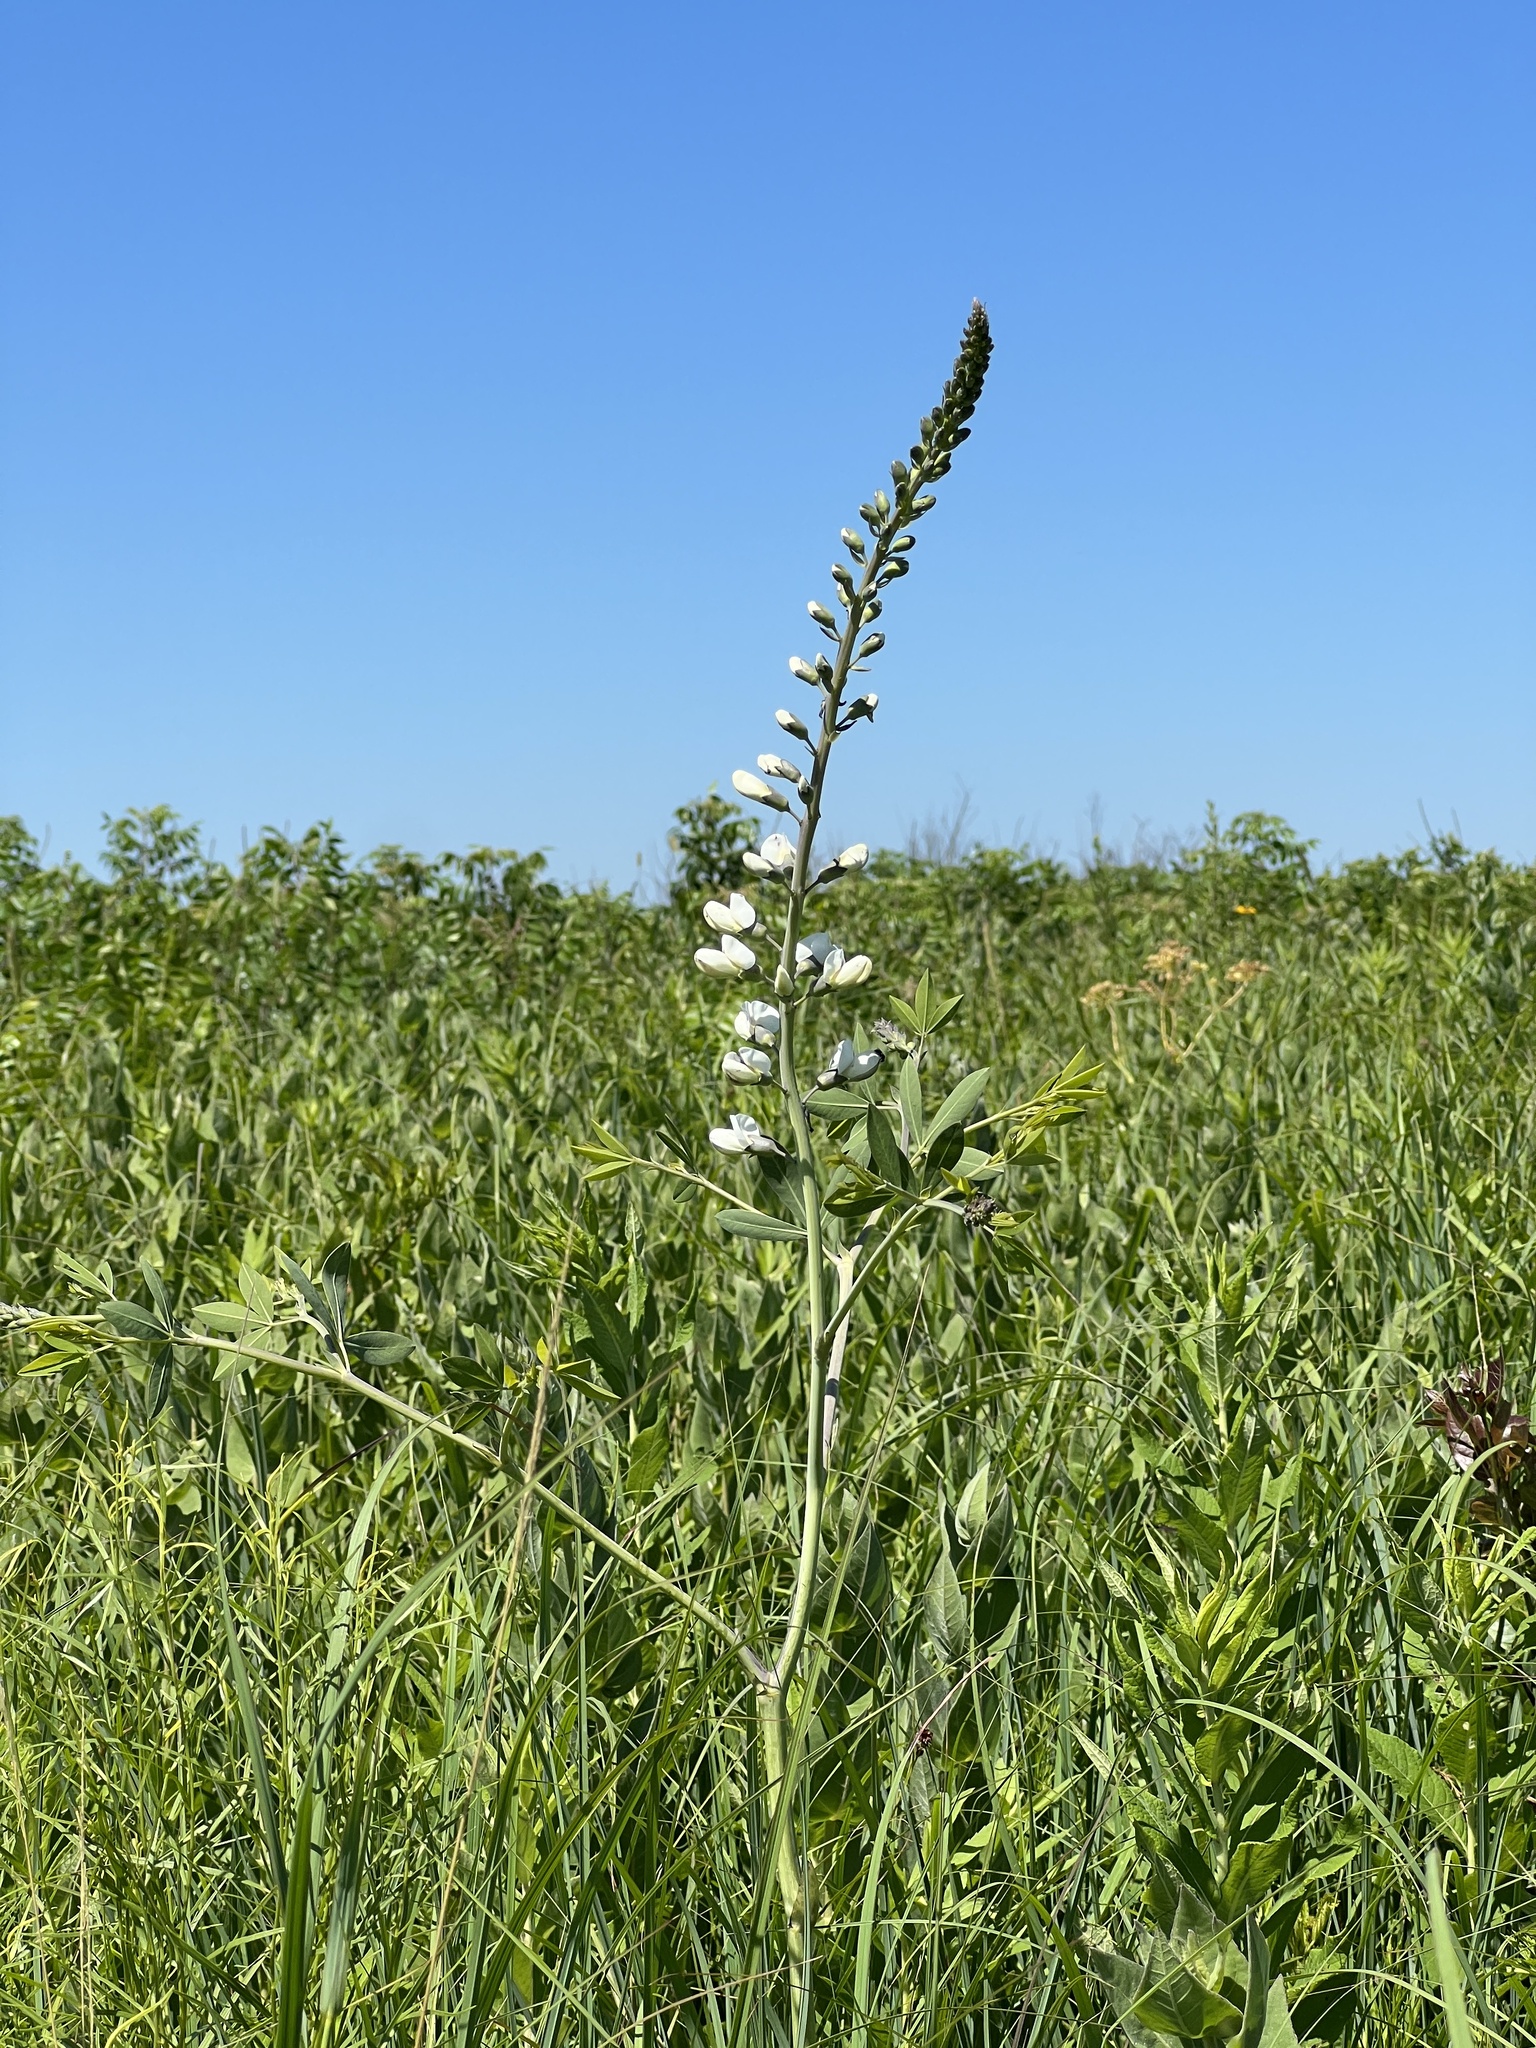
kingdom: Plantae
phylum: Tracheophyta
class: Magnoliopsida
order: Fabales
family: Fabaceae
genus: Baptisia
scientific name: Baptisia alba
